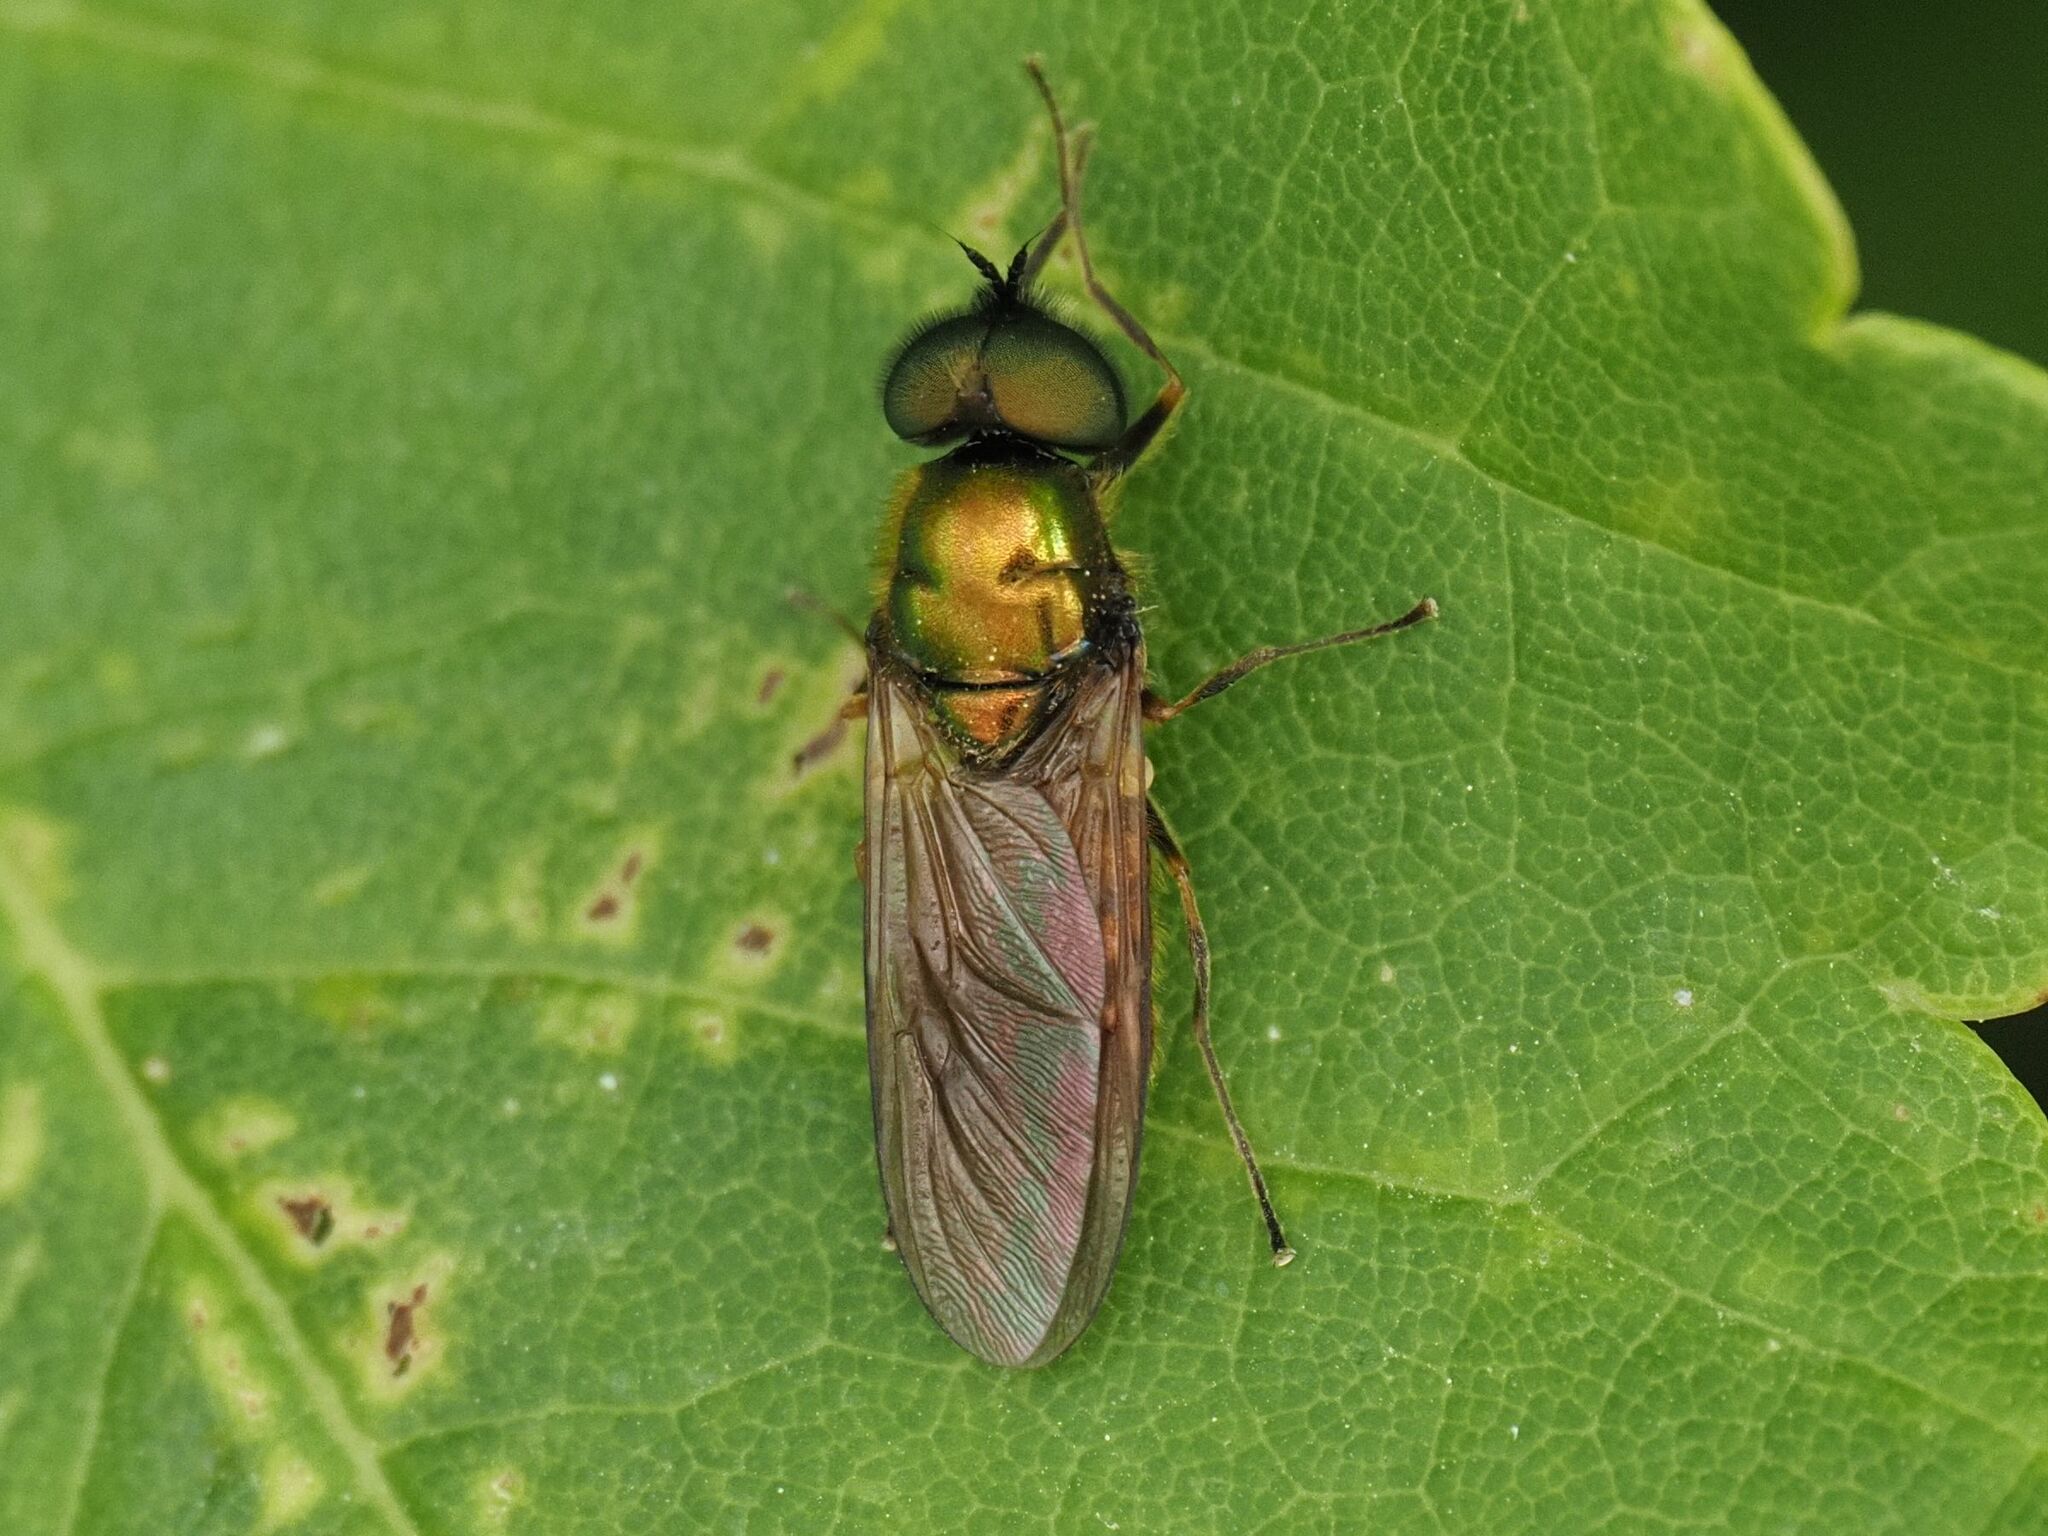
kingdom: Animalia
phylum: Arthropoda
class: Insecta
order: Diptera
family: Stratiomyidae
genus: Chloromyia
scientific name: Chloromyia formosa
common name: Soldier fly
